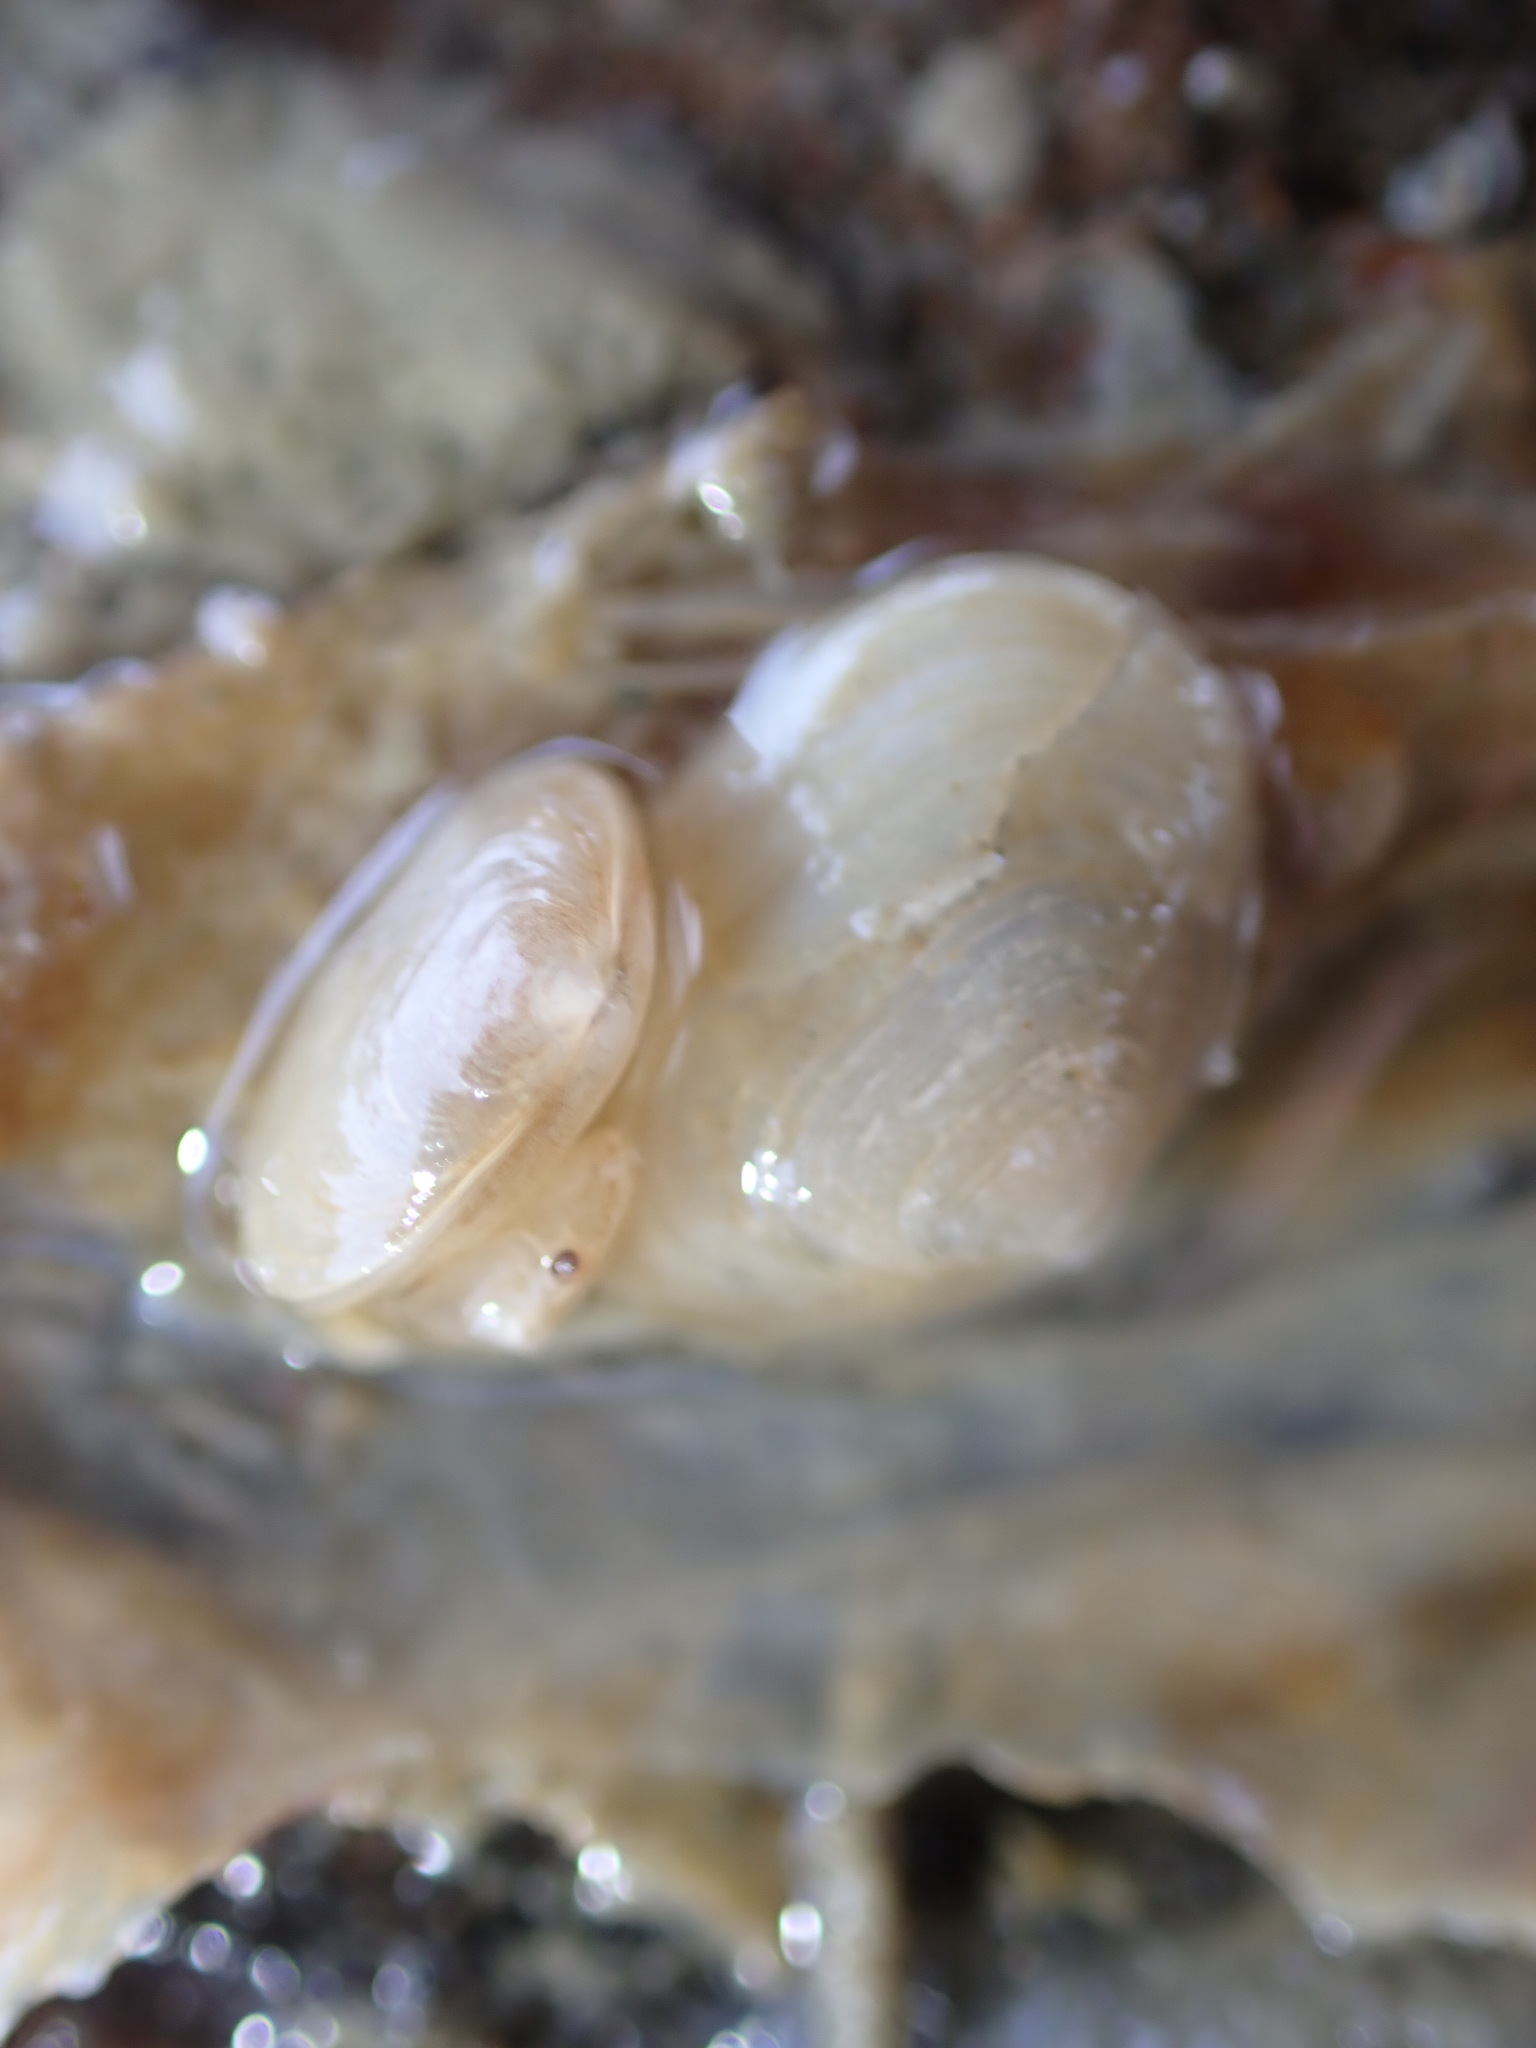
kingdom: Animalia
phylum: Mollusca
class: Bivalvia
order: Galeommatida
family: Lasaeidae
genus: Borniola
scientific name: Borniola reniformis
